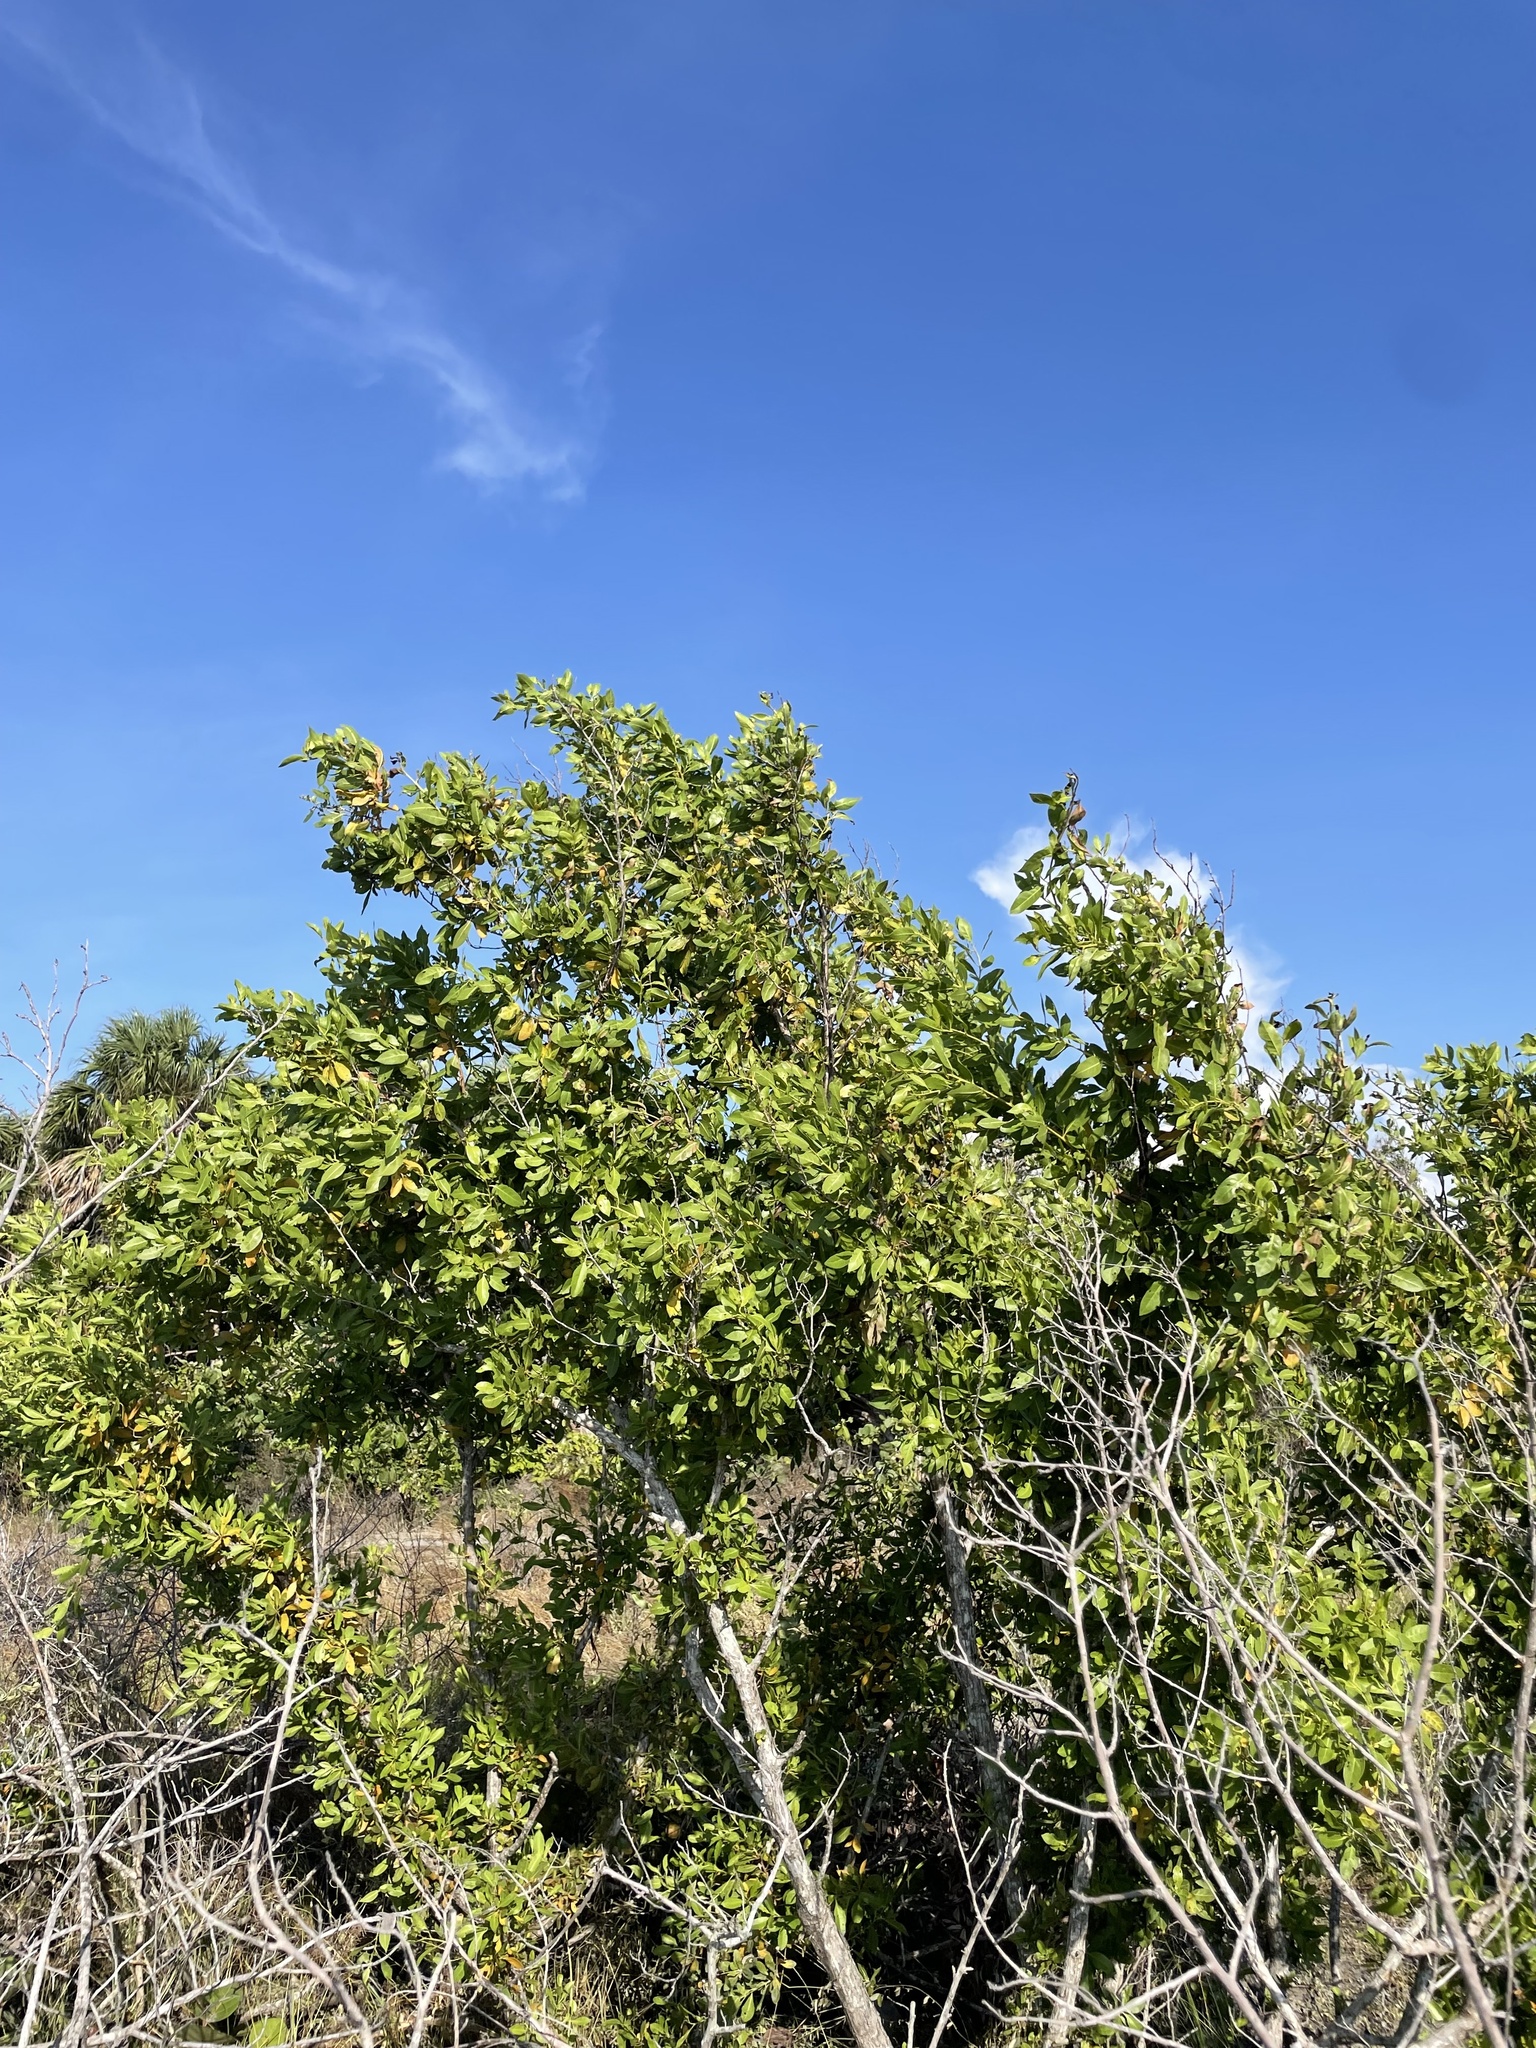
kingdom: Plantae
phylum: Tracheophyta
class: Magnoliopsida
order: Myrtales
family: Combretaceae
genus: Conocarpus
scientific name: Conocarpus erectus
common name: Button mangrove
